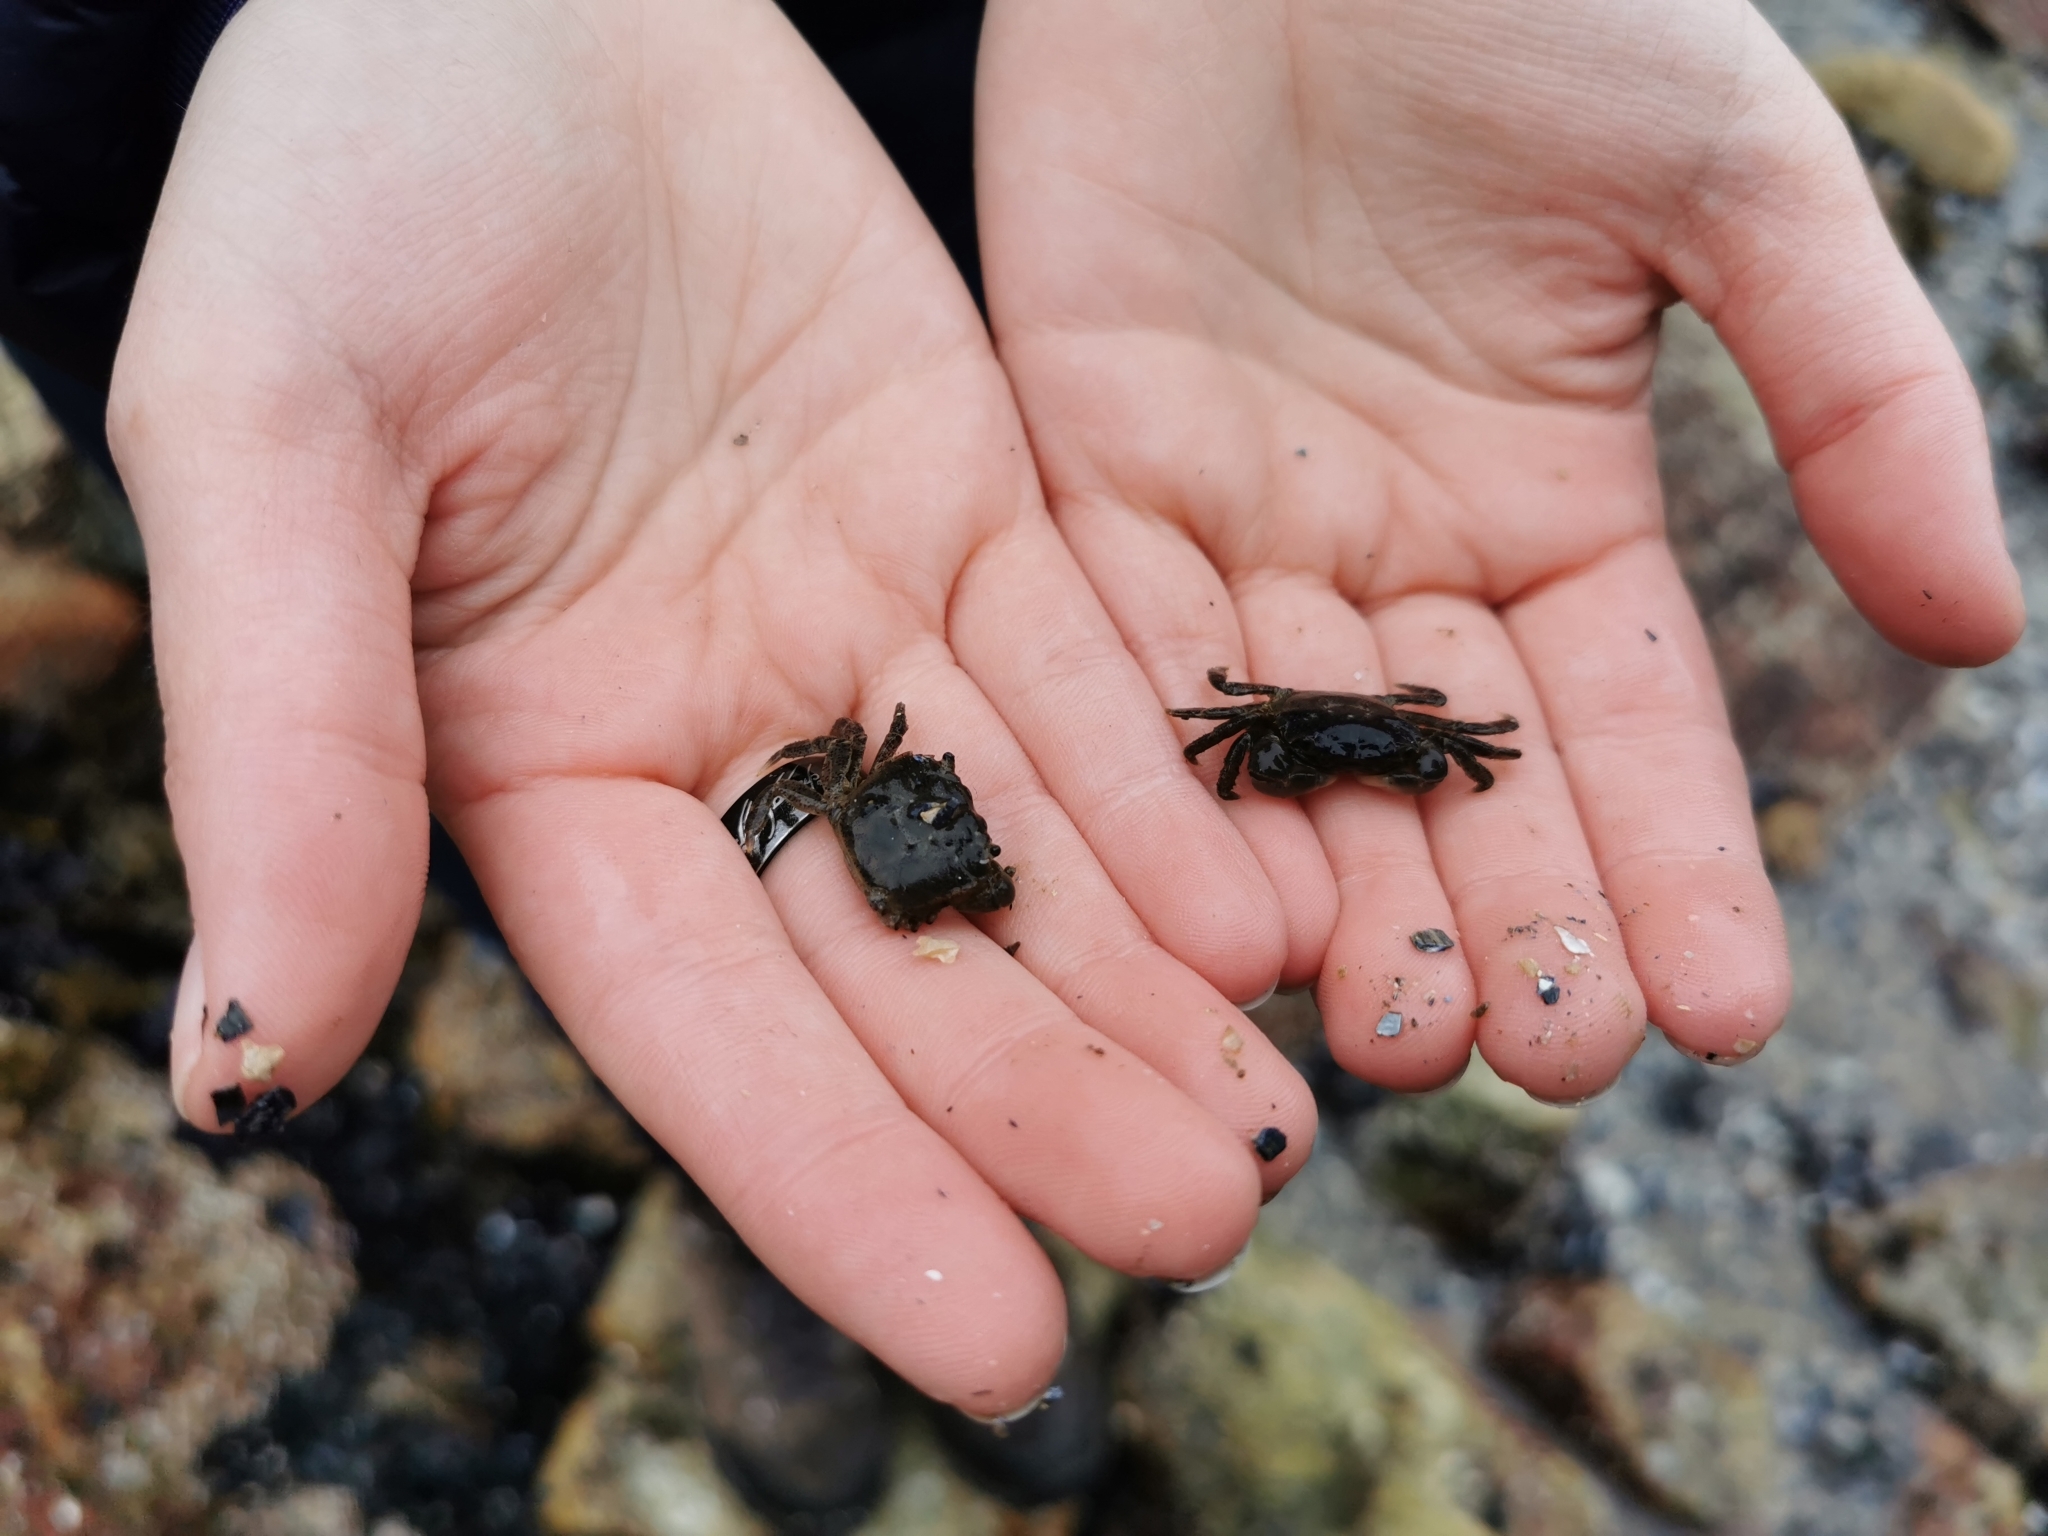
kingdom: Animalia
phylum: Arthropoda
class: Malacostraca
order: Decapoda
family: Varunidae
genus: Hemigrapsus
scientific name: Hemigrapsus oregonensis
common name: Yellow shore crab
